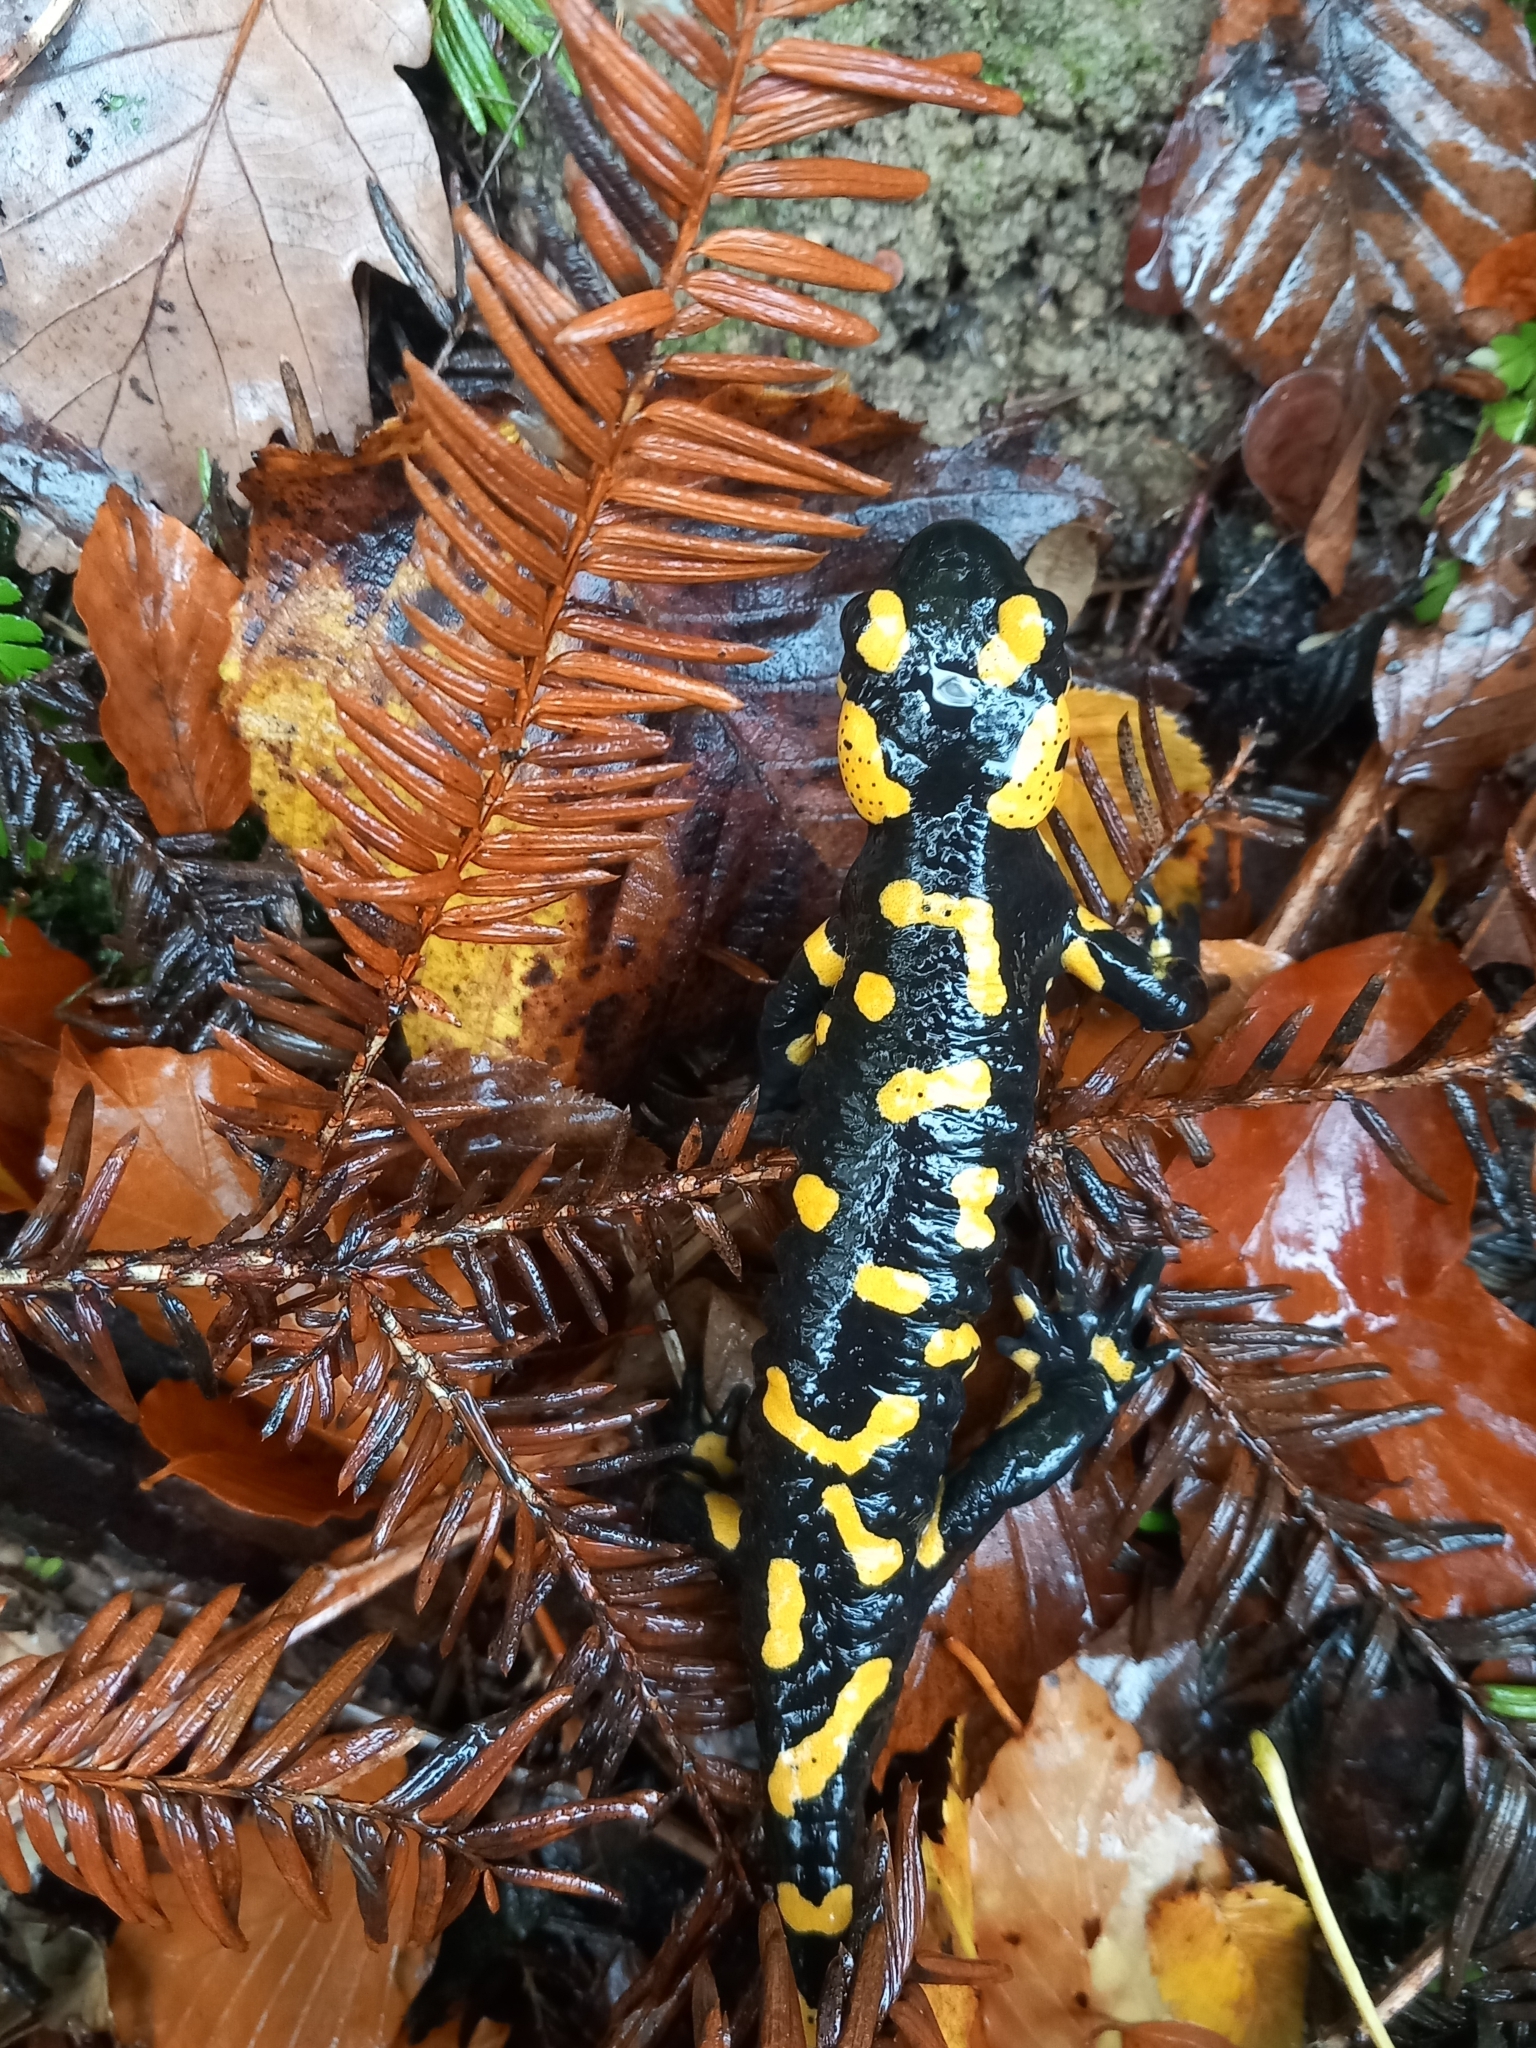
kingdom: Animalia
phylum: Chordata
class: Amphibia
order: Caudata
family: Salamandridae
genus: Salamandra
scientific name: Salamandra salamandra
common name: Fire salamander
